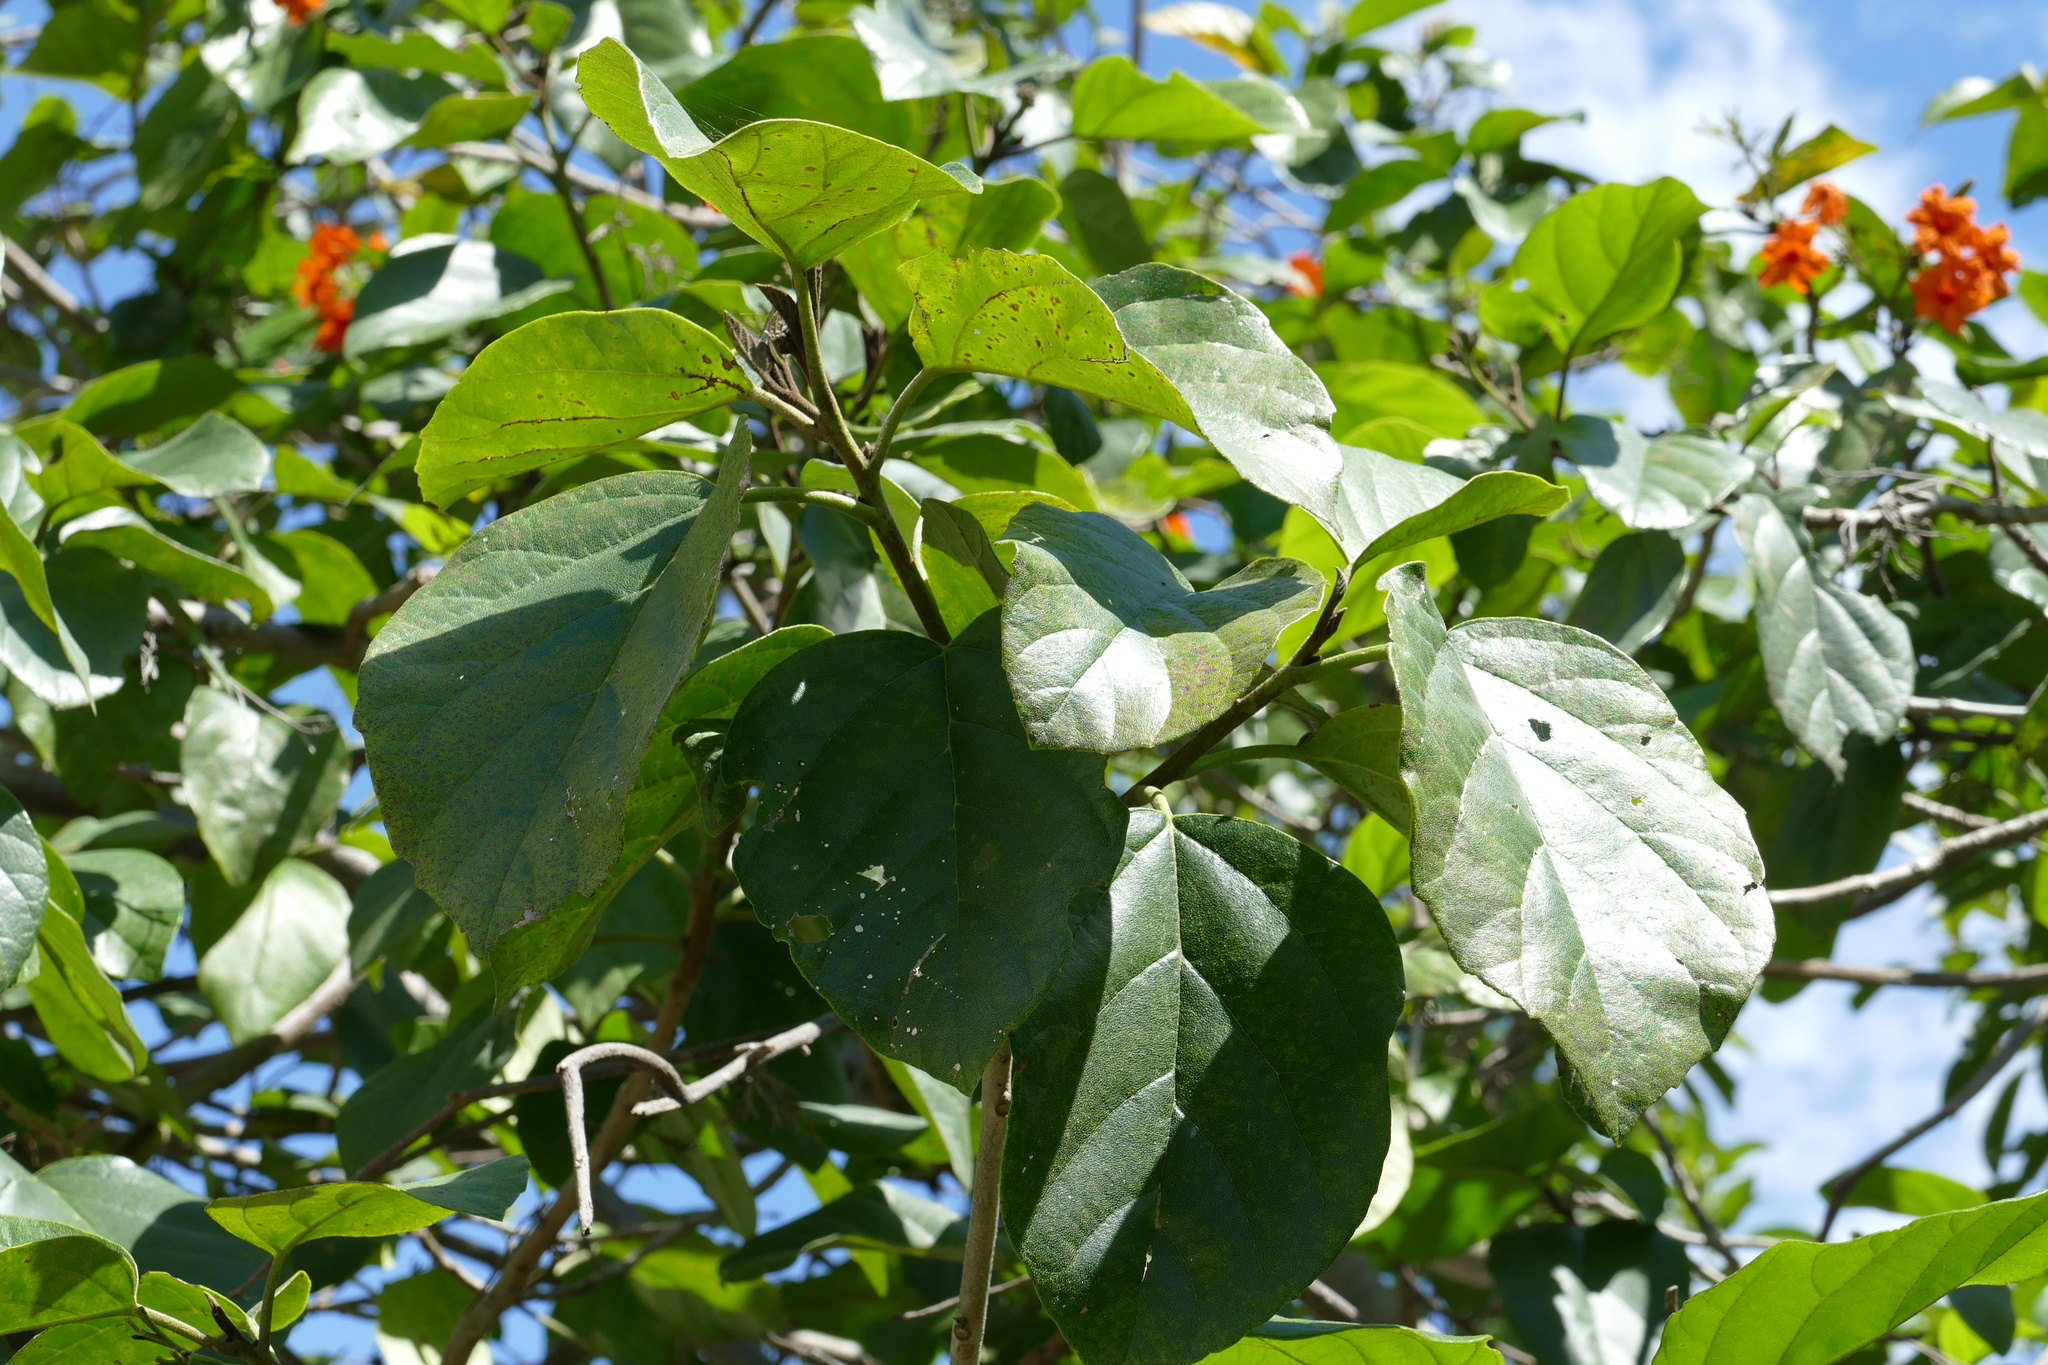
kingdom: Plantae
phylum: Tracheophyta
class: Magnoliopsida
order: Boraginales
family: Cordiaceae
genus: Cordia
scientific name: Cordia sebestena
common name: Largeleaf geigertree
